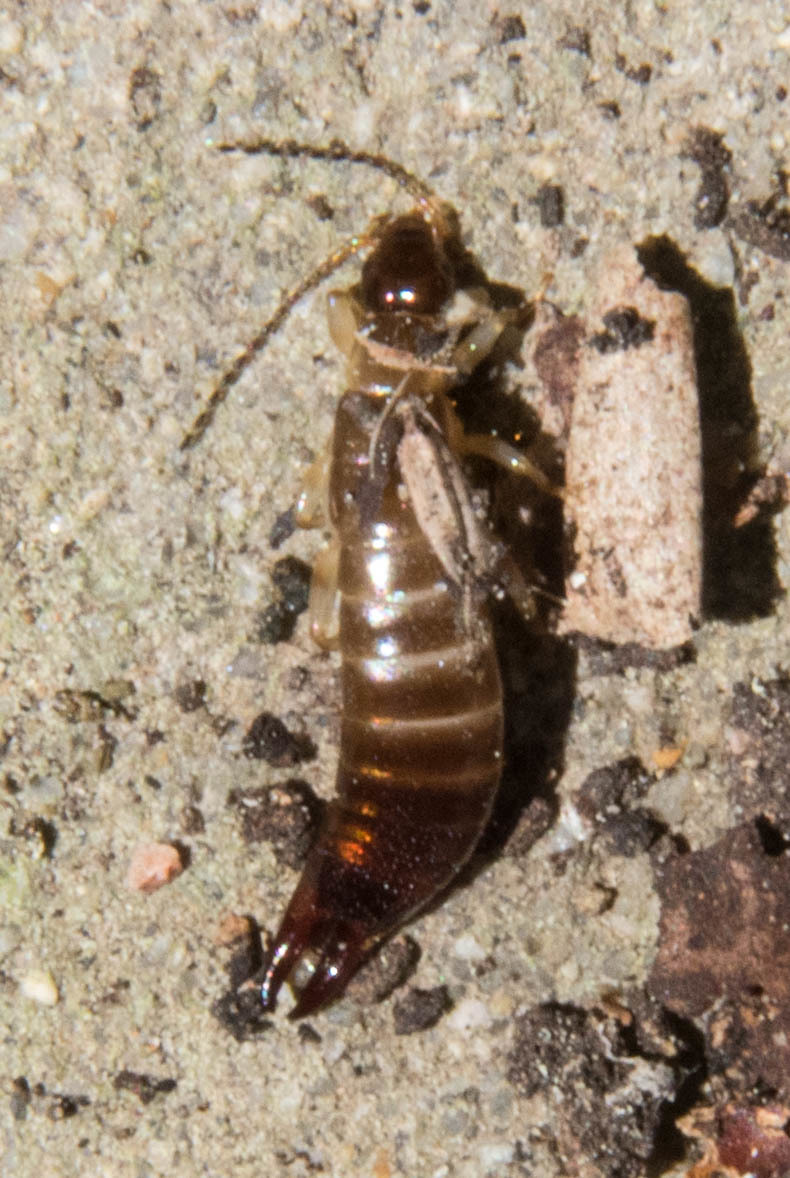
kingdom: Animalia
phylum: Arthropoda
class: Insecta
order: Dermaptera
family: Anisolabididae
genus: Euborellia
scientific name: Euborellia annulipes
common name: Ringlegged earwig
